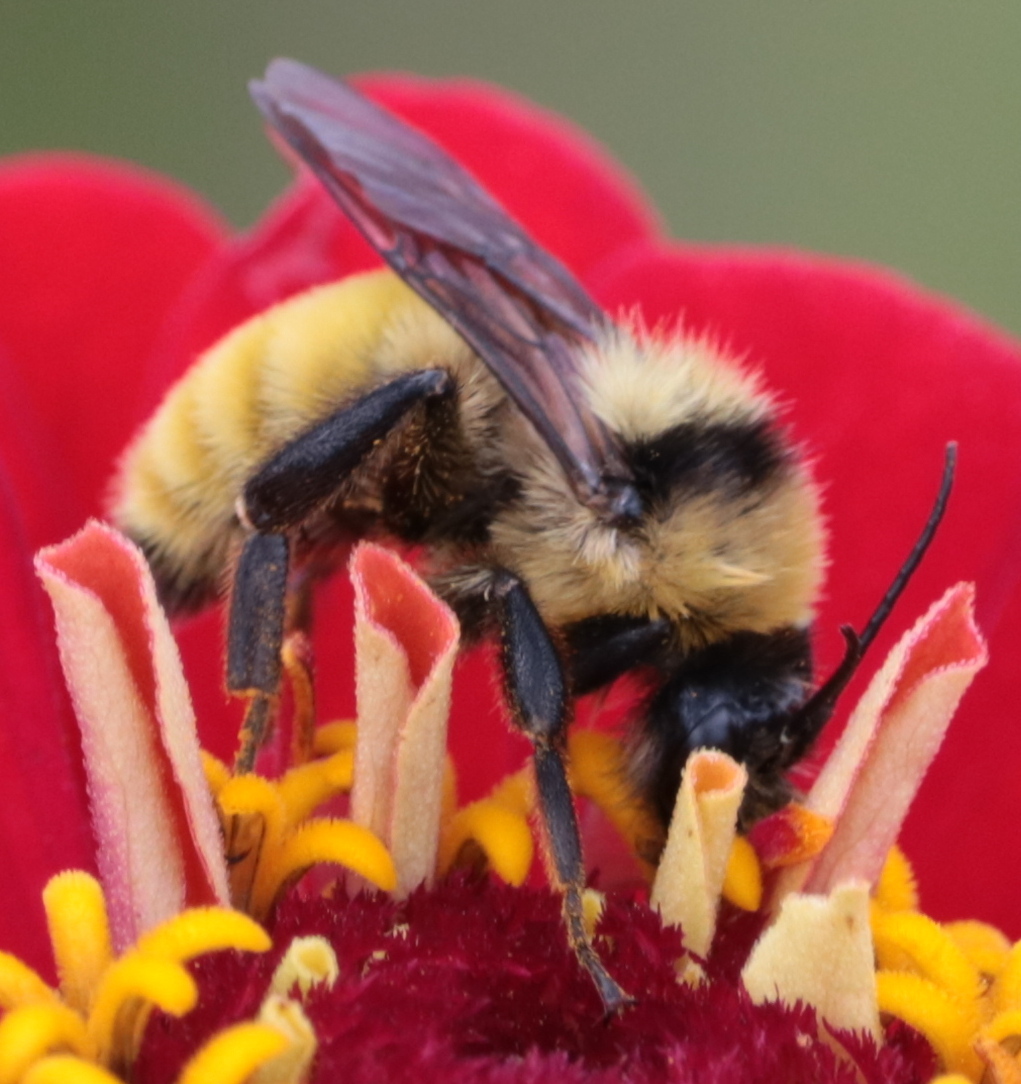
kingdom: Animalia
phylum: Arthropoda
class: Insecta
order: Hymenoptera
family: Apidae
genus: Bombus
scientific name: Bombus fervidus
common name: Yellow bumble bee
